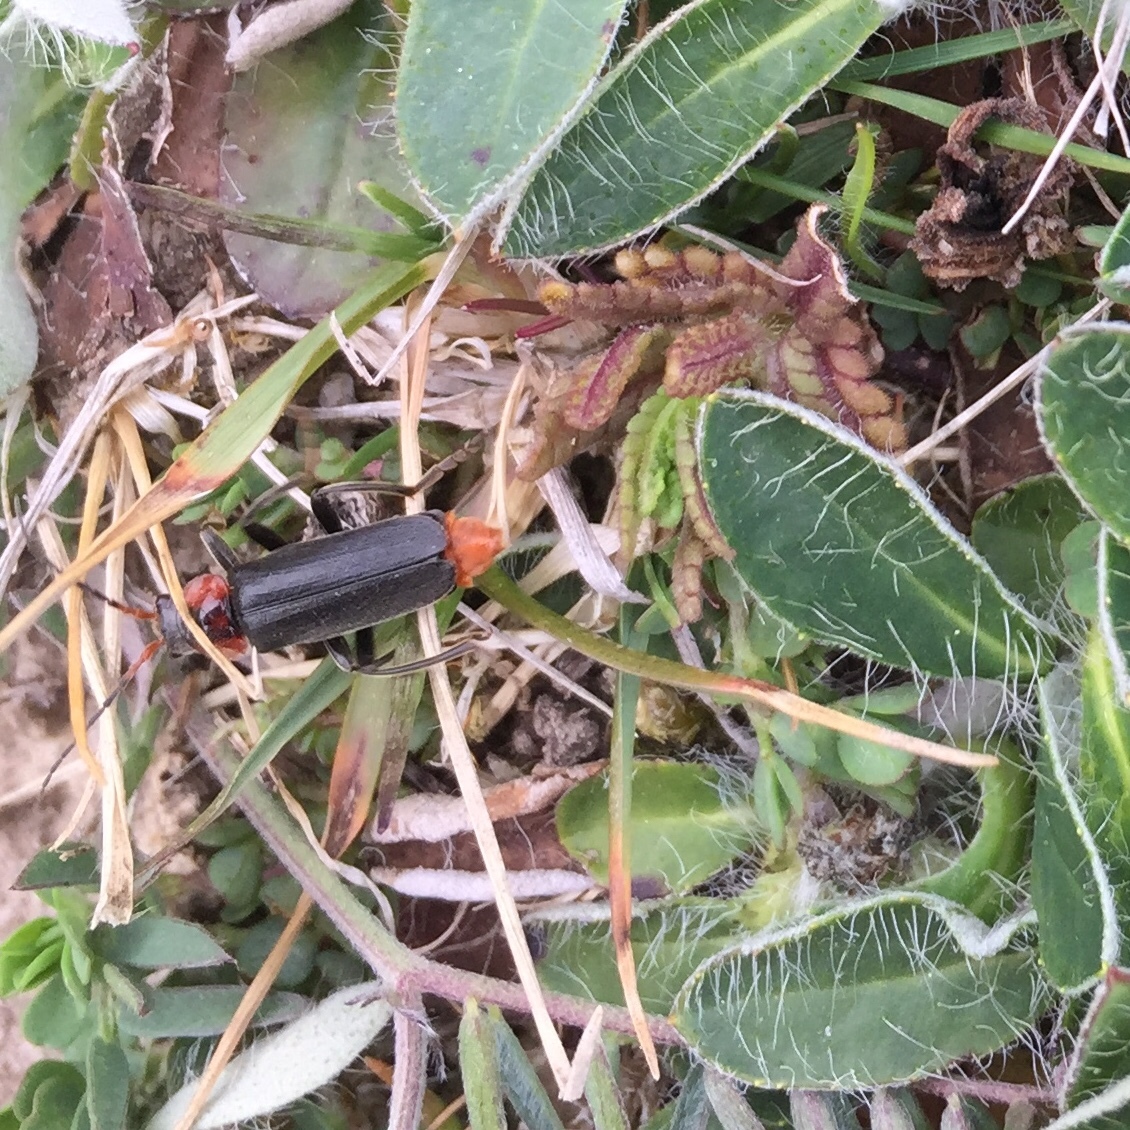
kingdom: Animalia
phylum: Arthropoda
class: Insecta
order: Coleoptera
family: Cantharidae
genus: Cantharis
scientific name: Cantharis fusca
